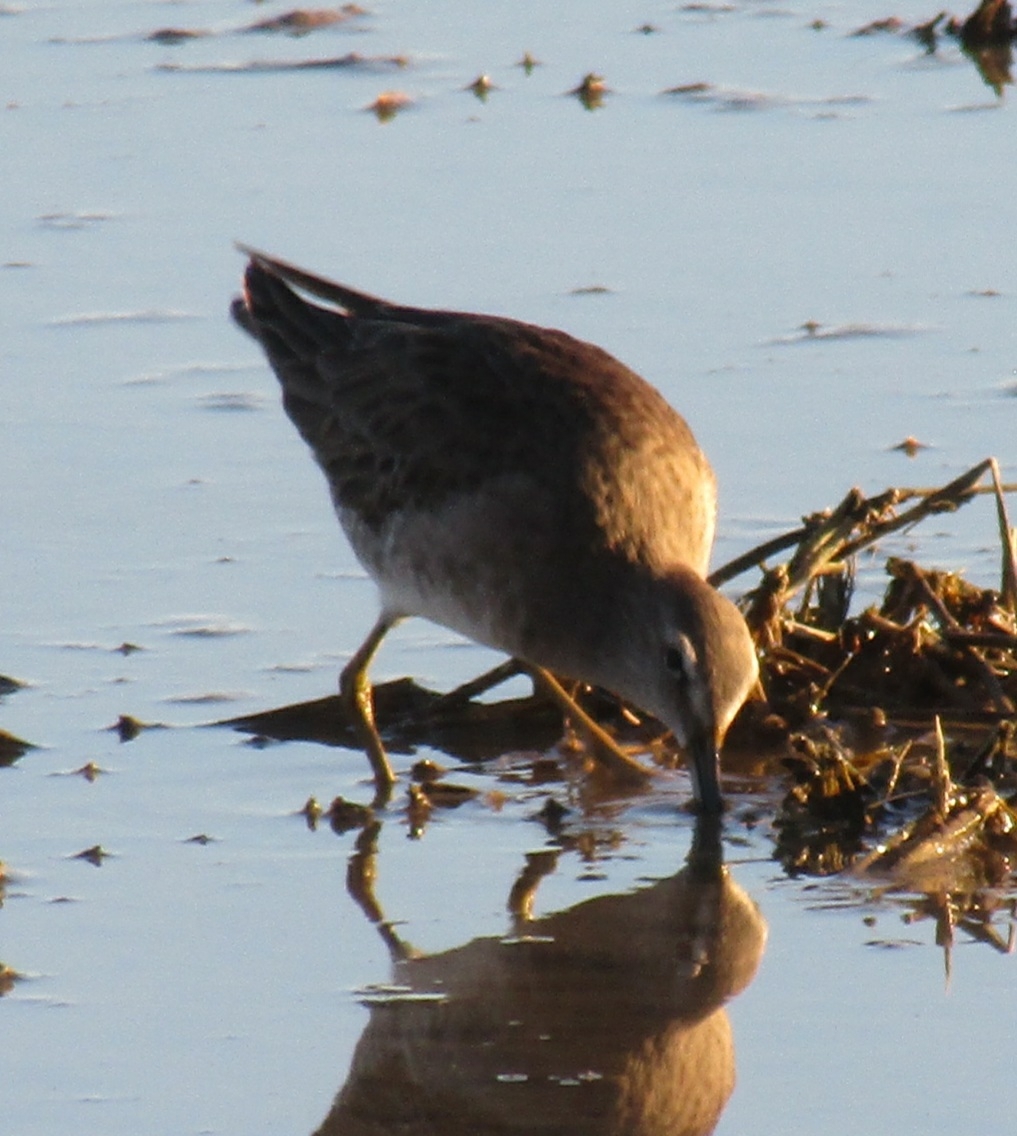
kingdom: Animalia
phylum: Chordata
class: Aves
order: Charadriiformes
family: Scolopacidae
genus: Limnodromus
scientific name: Limnodromus scolopaceus
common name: Long-billed dowitcher
